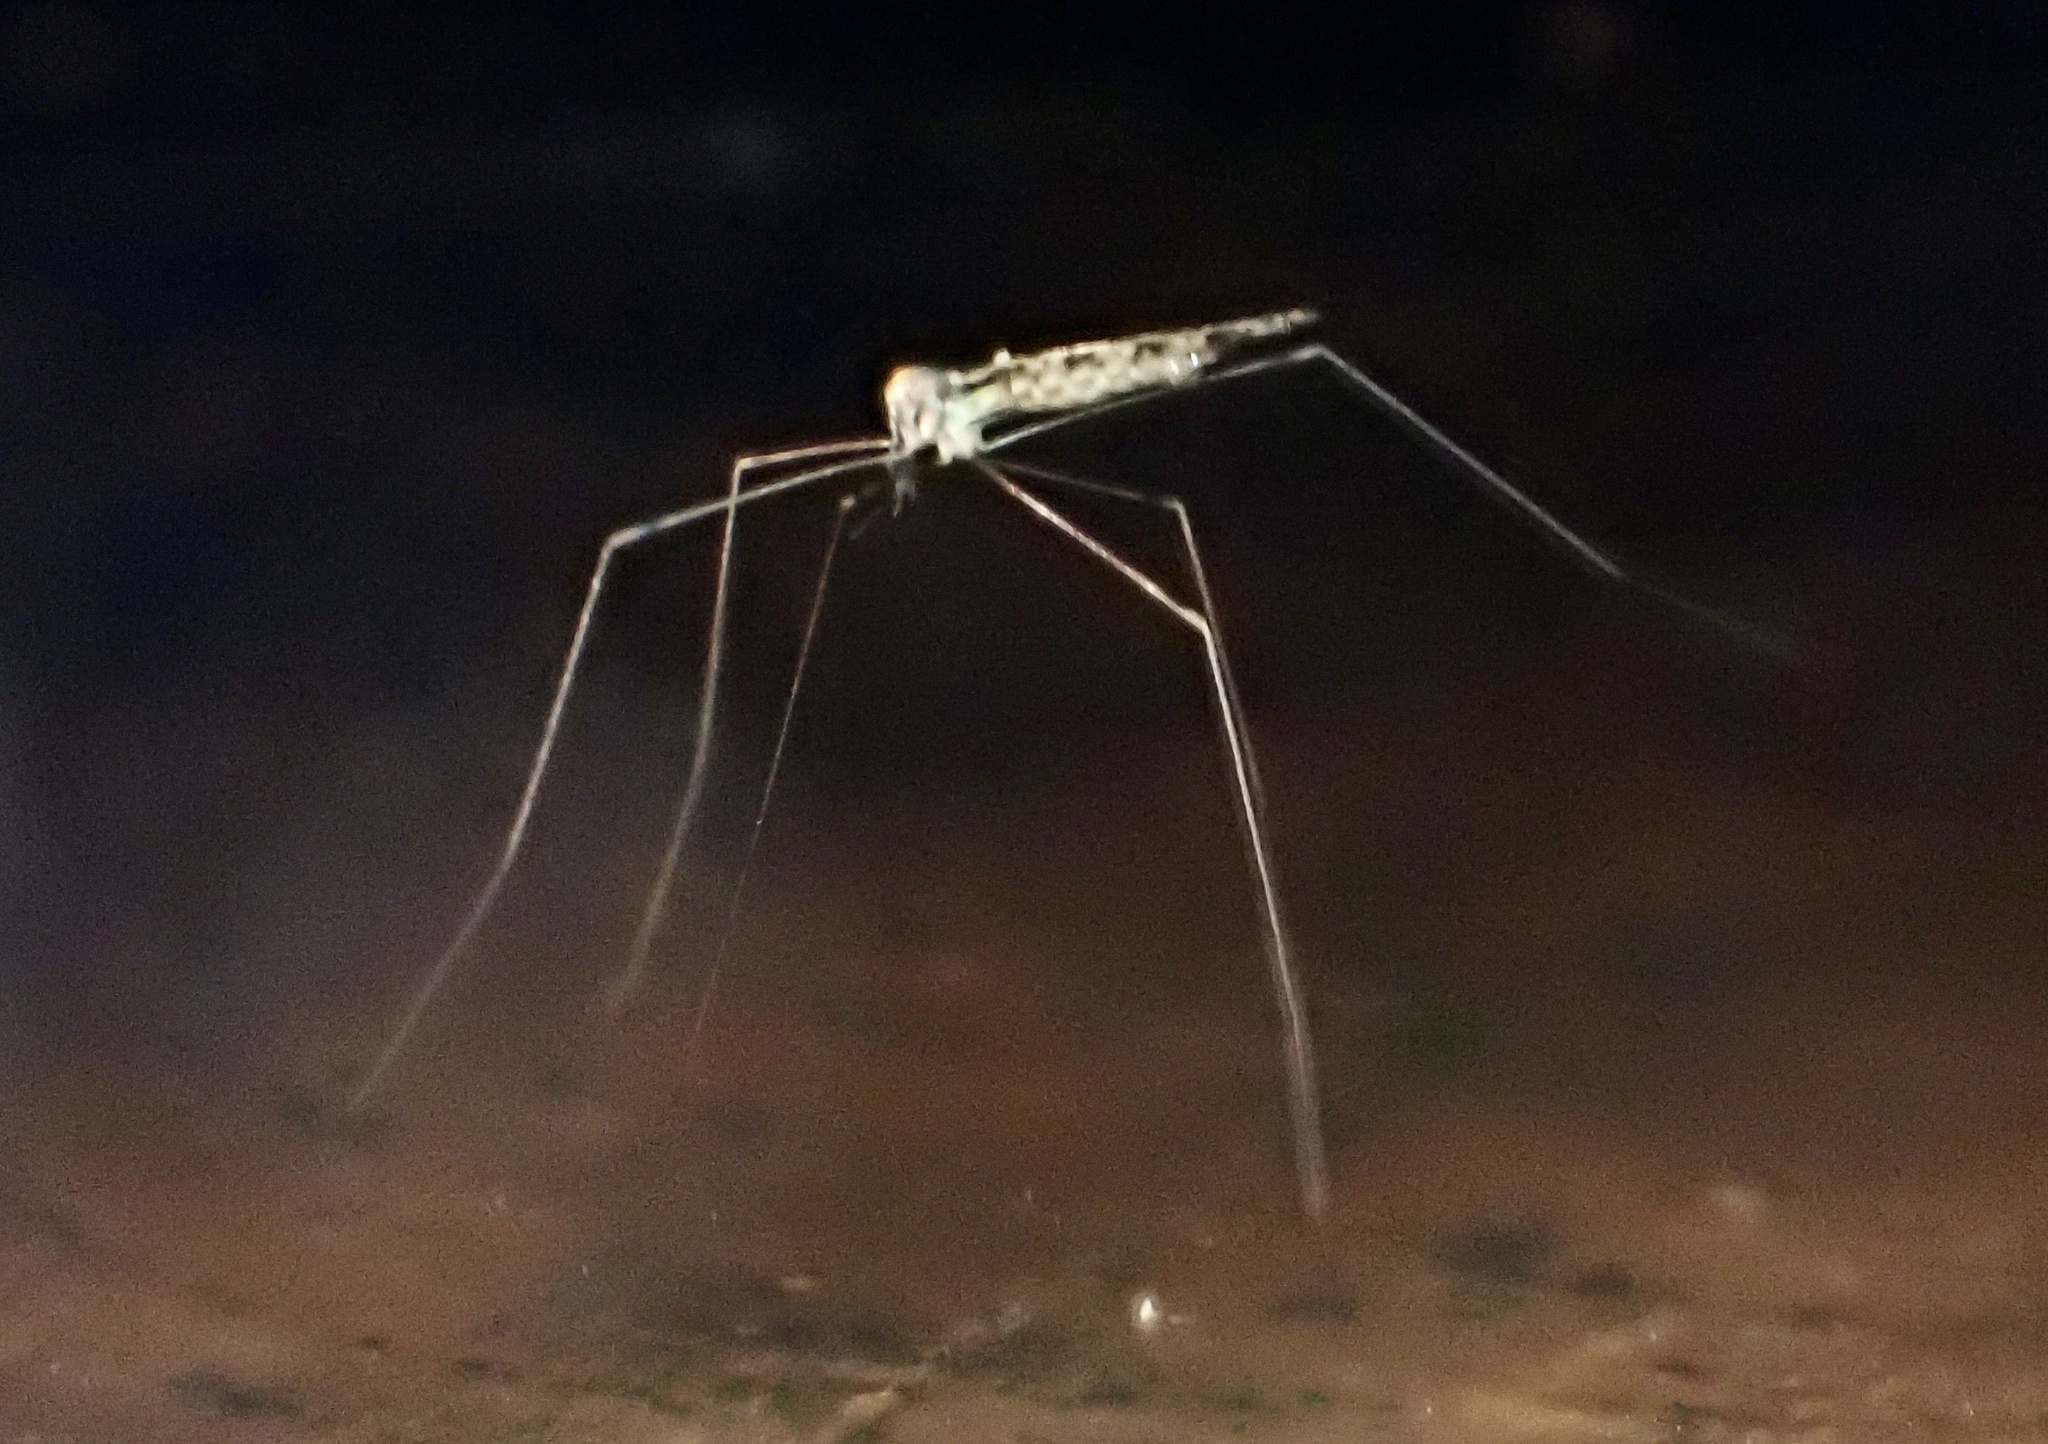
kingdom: Animalia
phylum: Arthropoda
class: Insecta
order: Diptera
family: Limoniidae
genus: Limonia
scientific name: Limonia annulata
